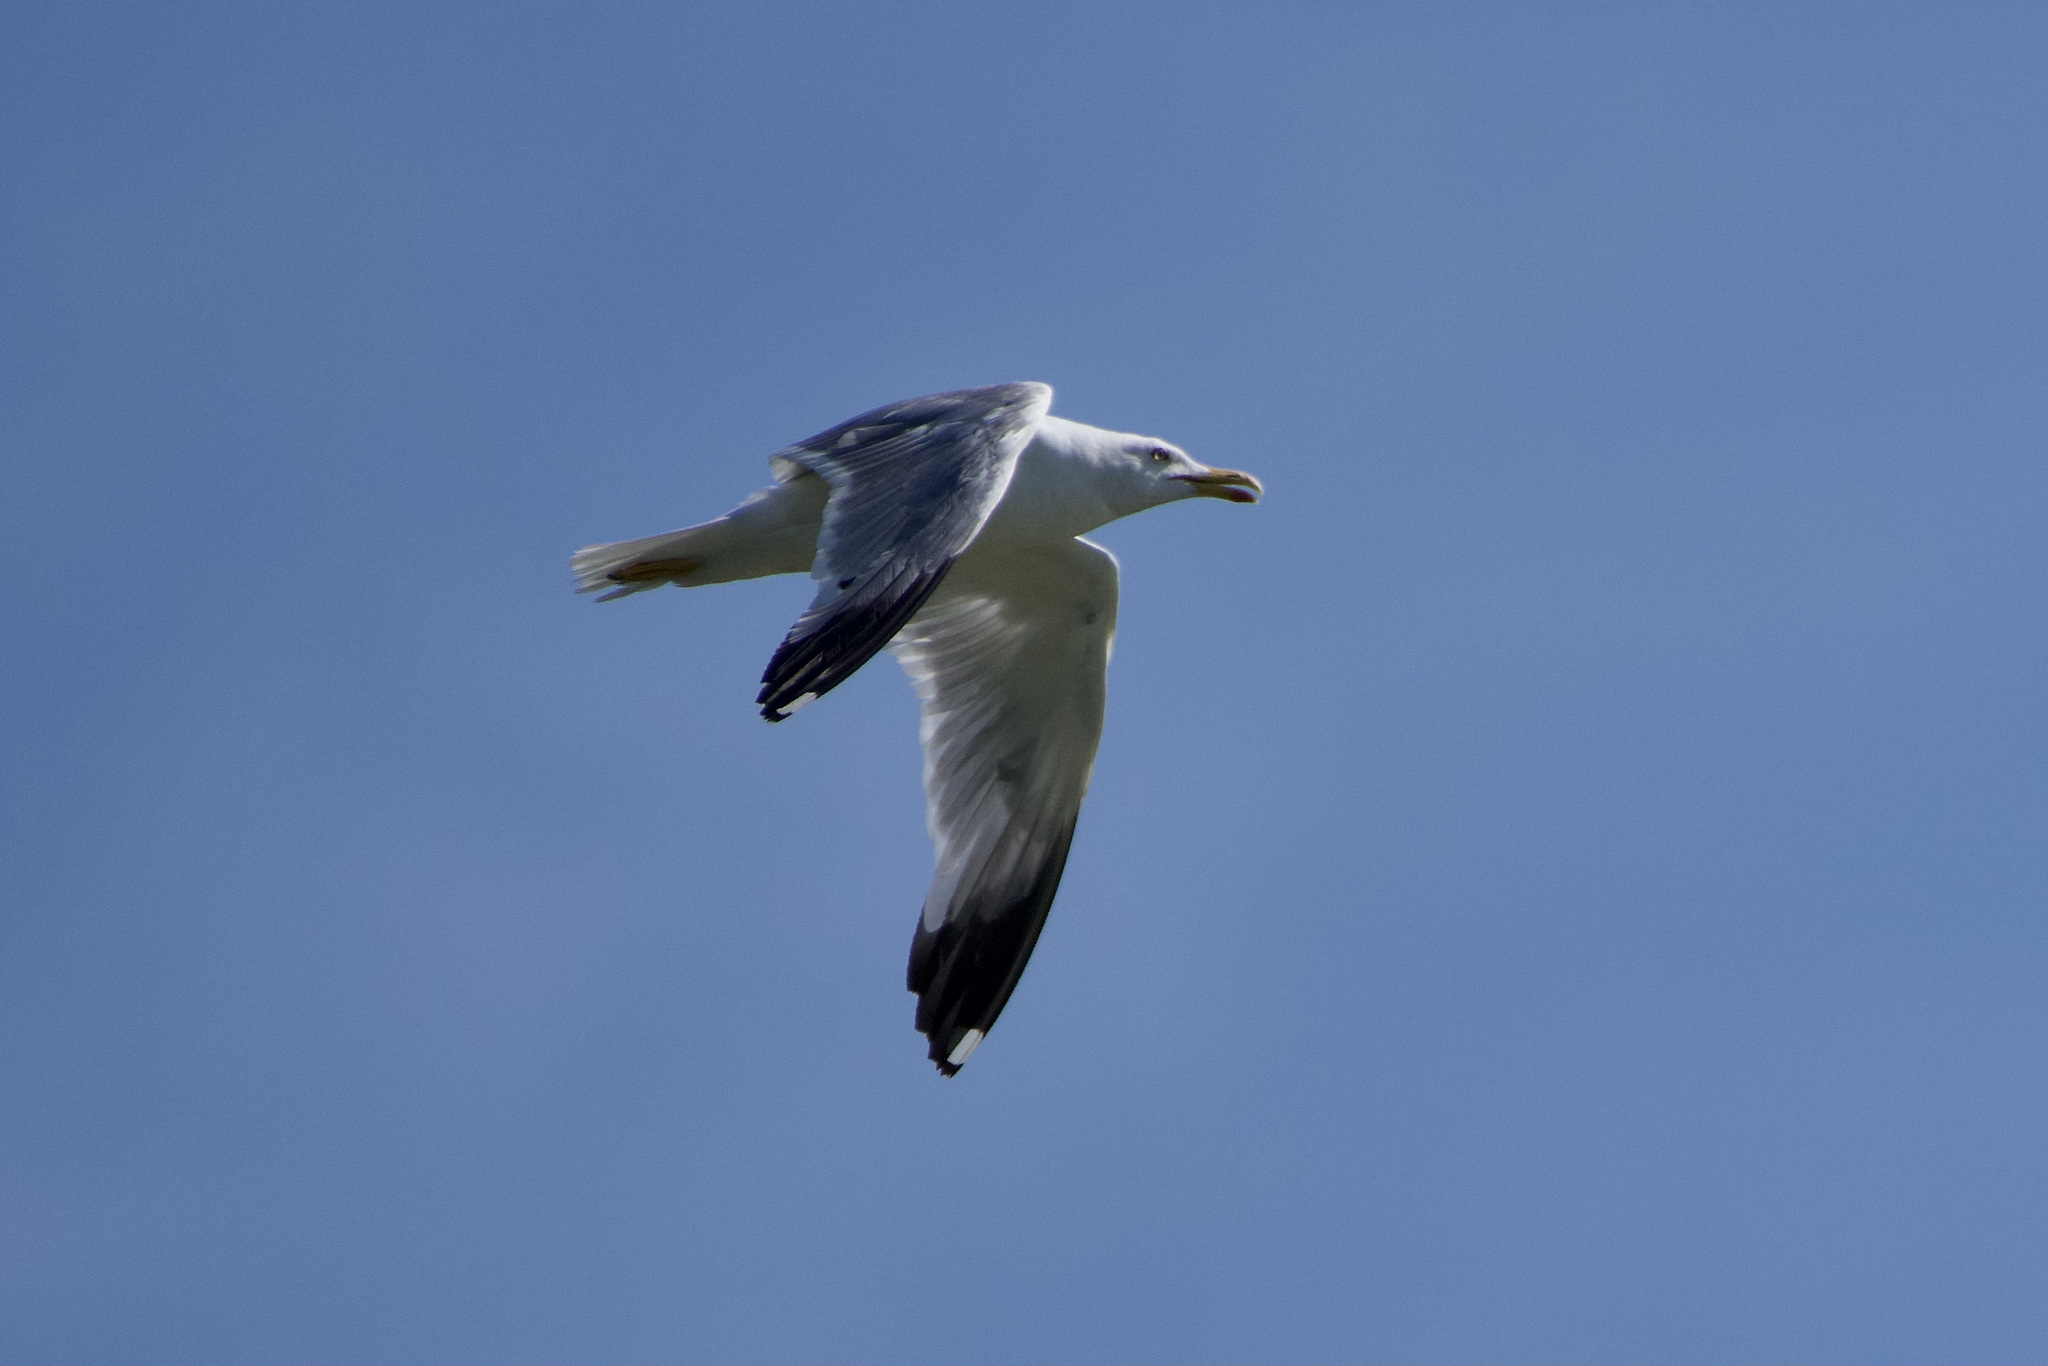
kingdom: Animalia
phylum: Chordata
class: Aves
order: Charadriiformes
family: Laridae
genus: Larus
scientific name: Larus michahellis
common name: Yellow-legged gull
